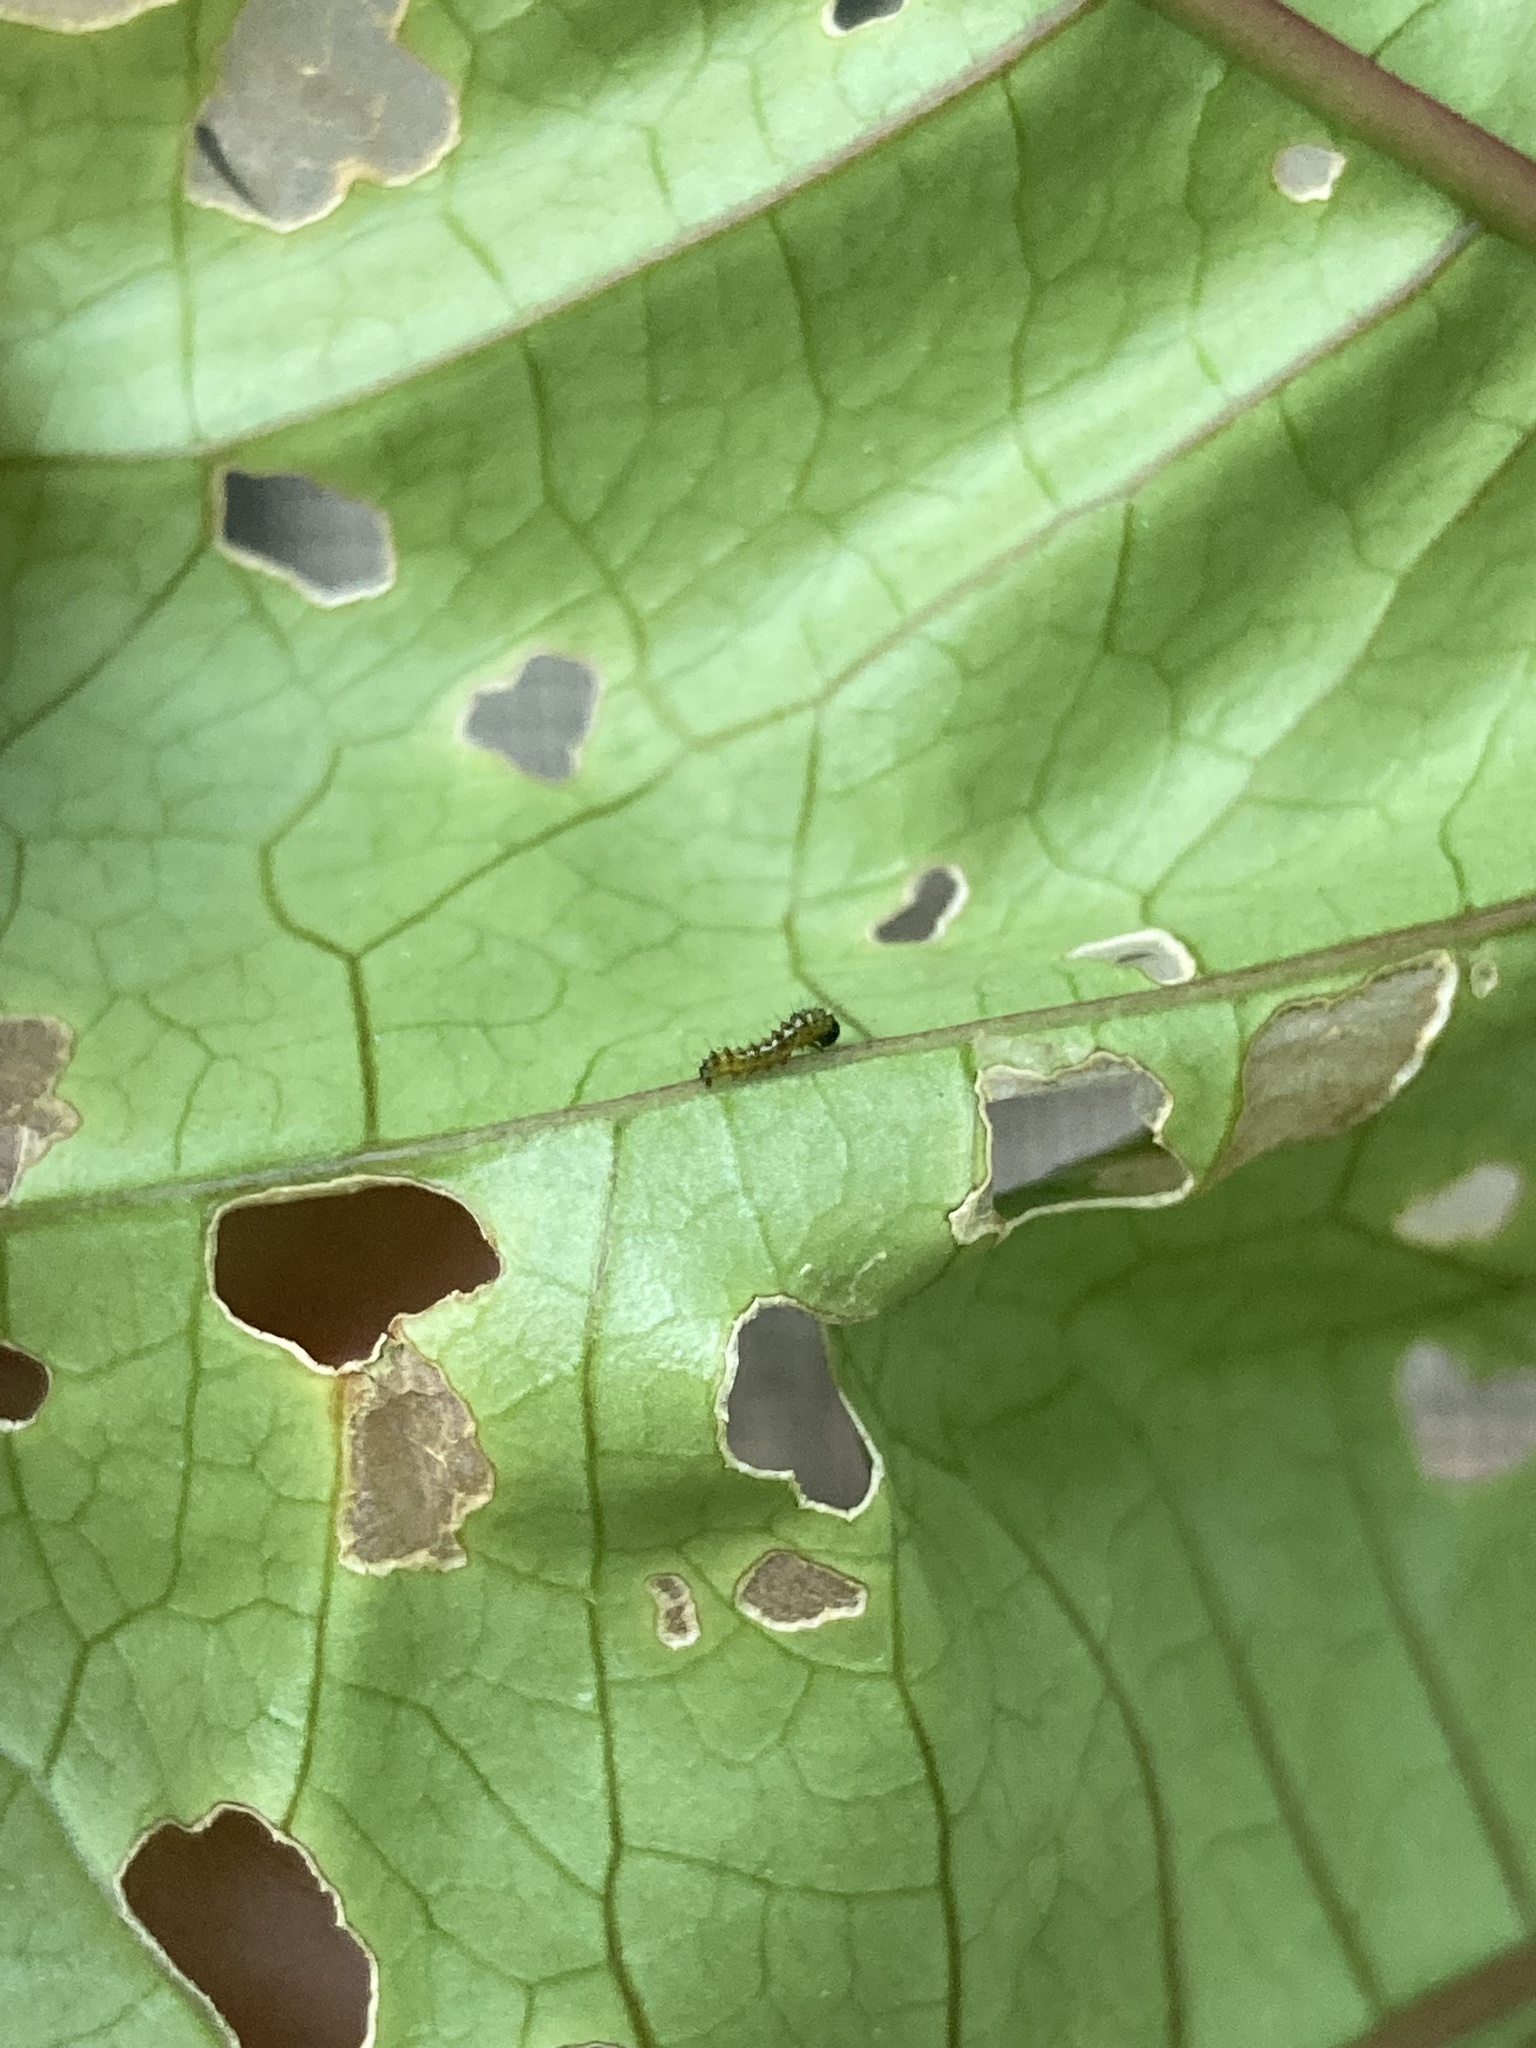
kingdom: Animalia
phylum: Arthropoda
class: Insecta
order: Lepidoptera
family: Nymphalidae
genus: Dione
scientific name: Dione vanillae
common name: Gulf fritillary
